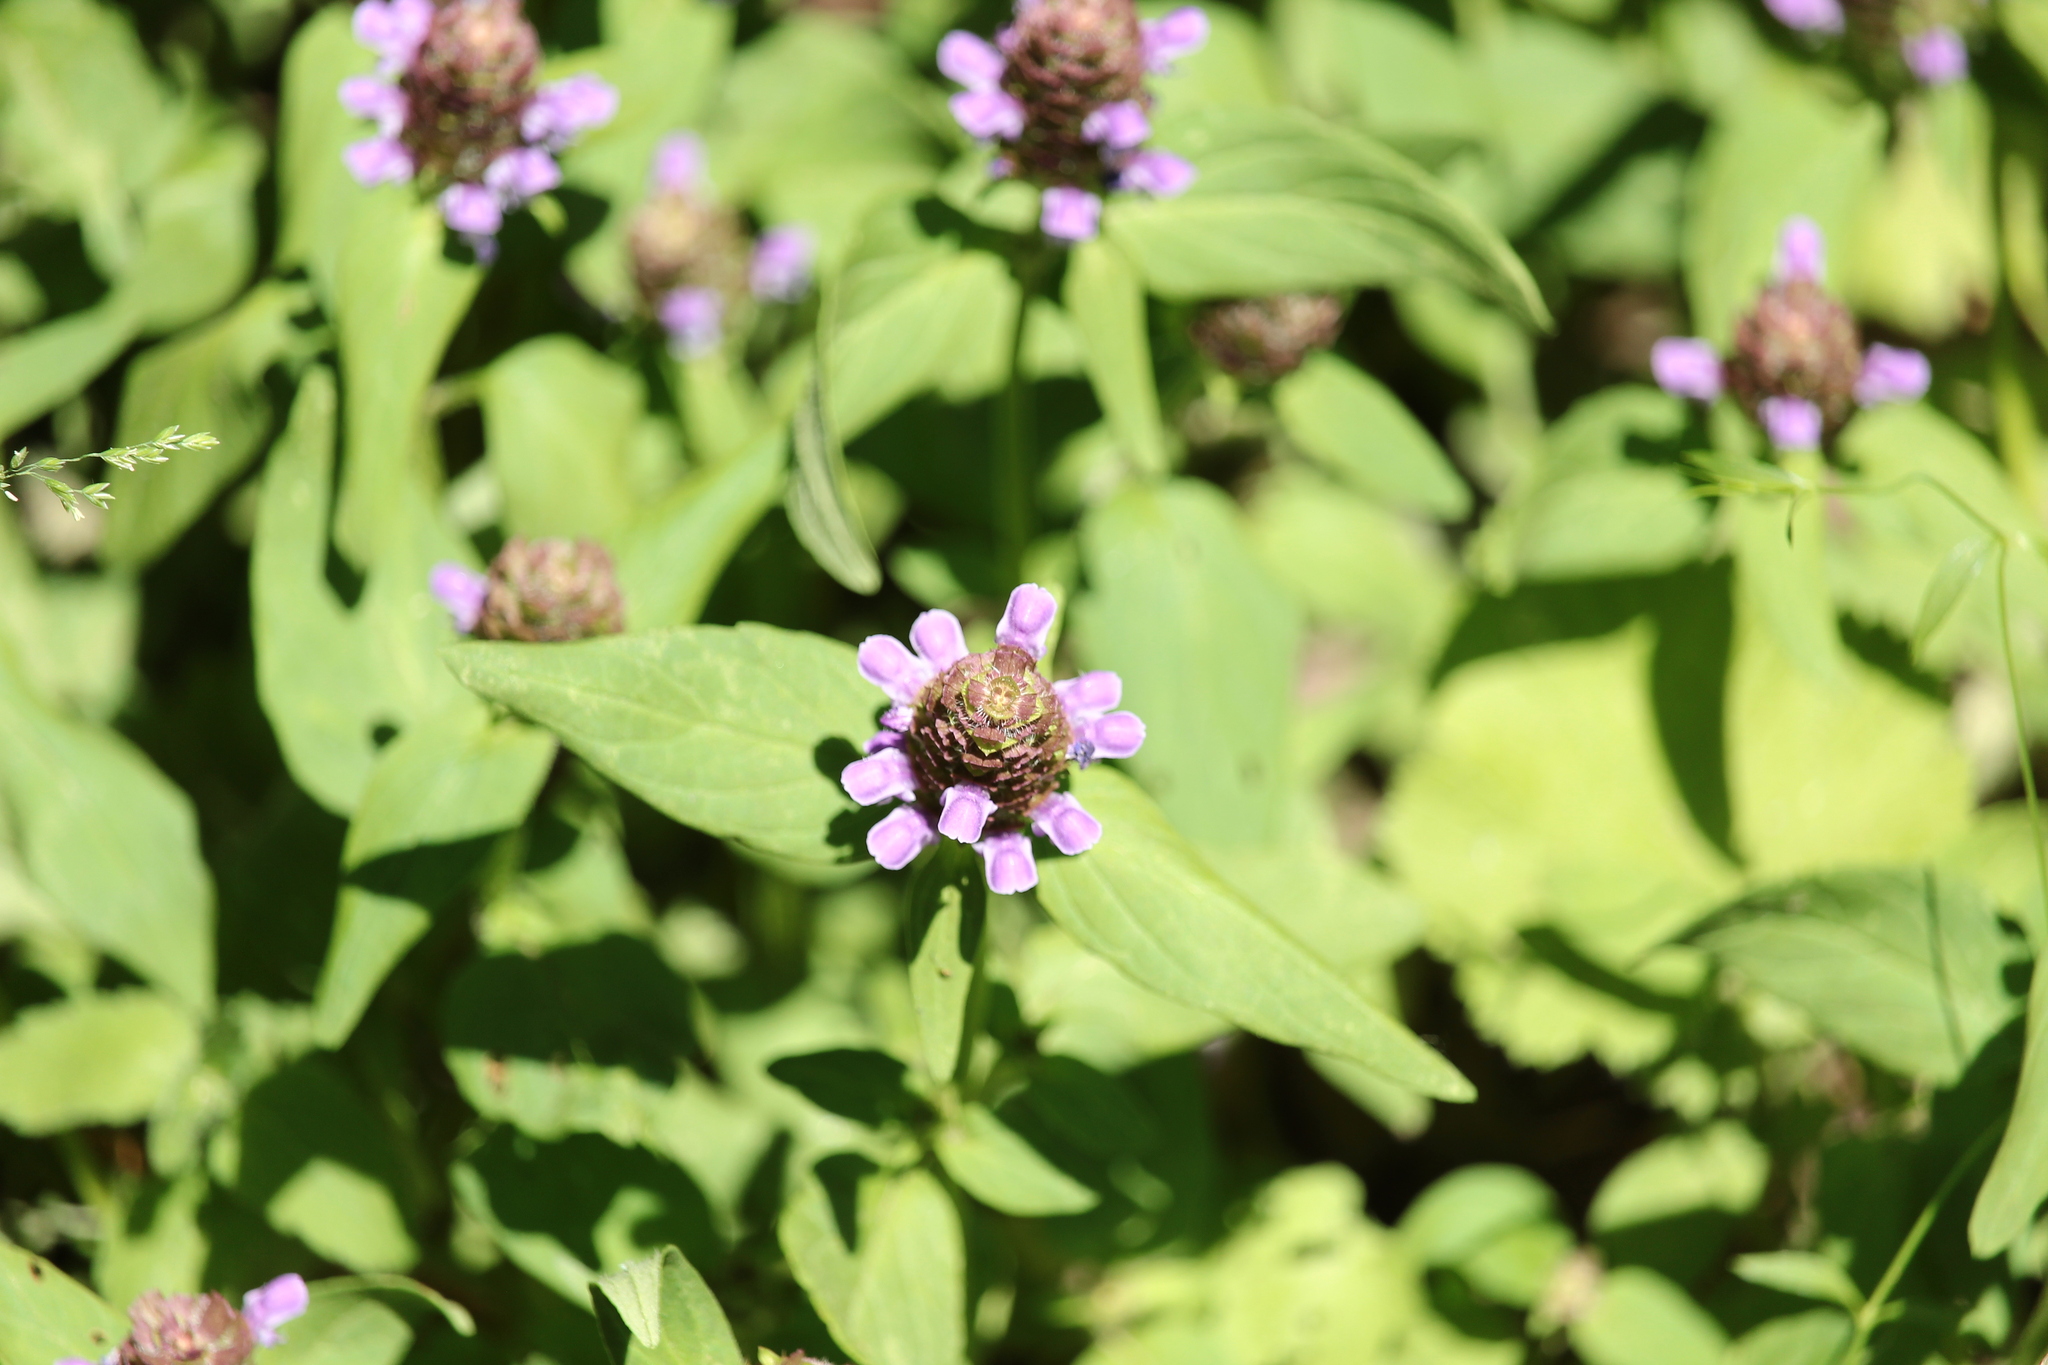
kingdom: Plantae
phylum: Tracheophyta
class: Magnoliopsida
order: Lamiales
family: Lamiaceae
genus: Prunella
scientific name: Prunella vulgaris
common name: Heal-all
